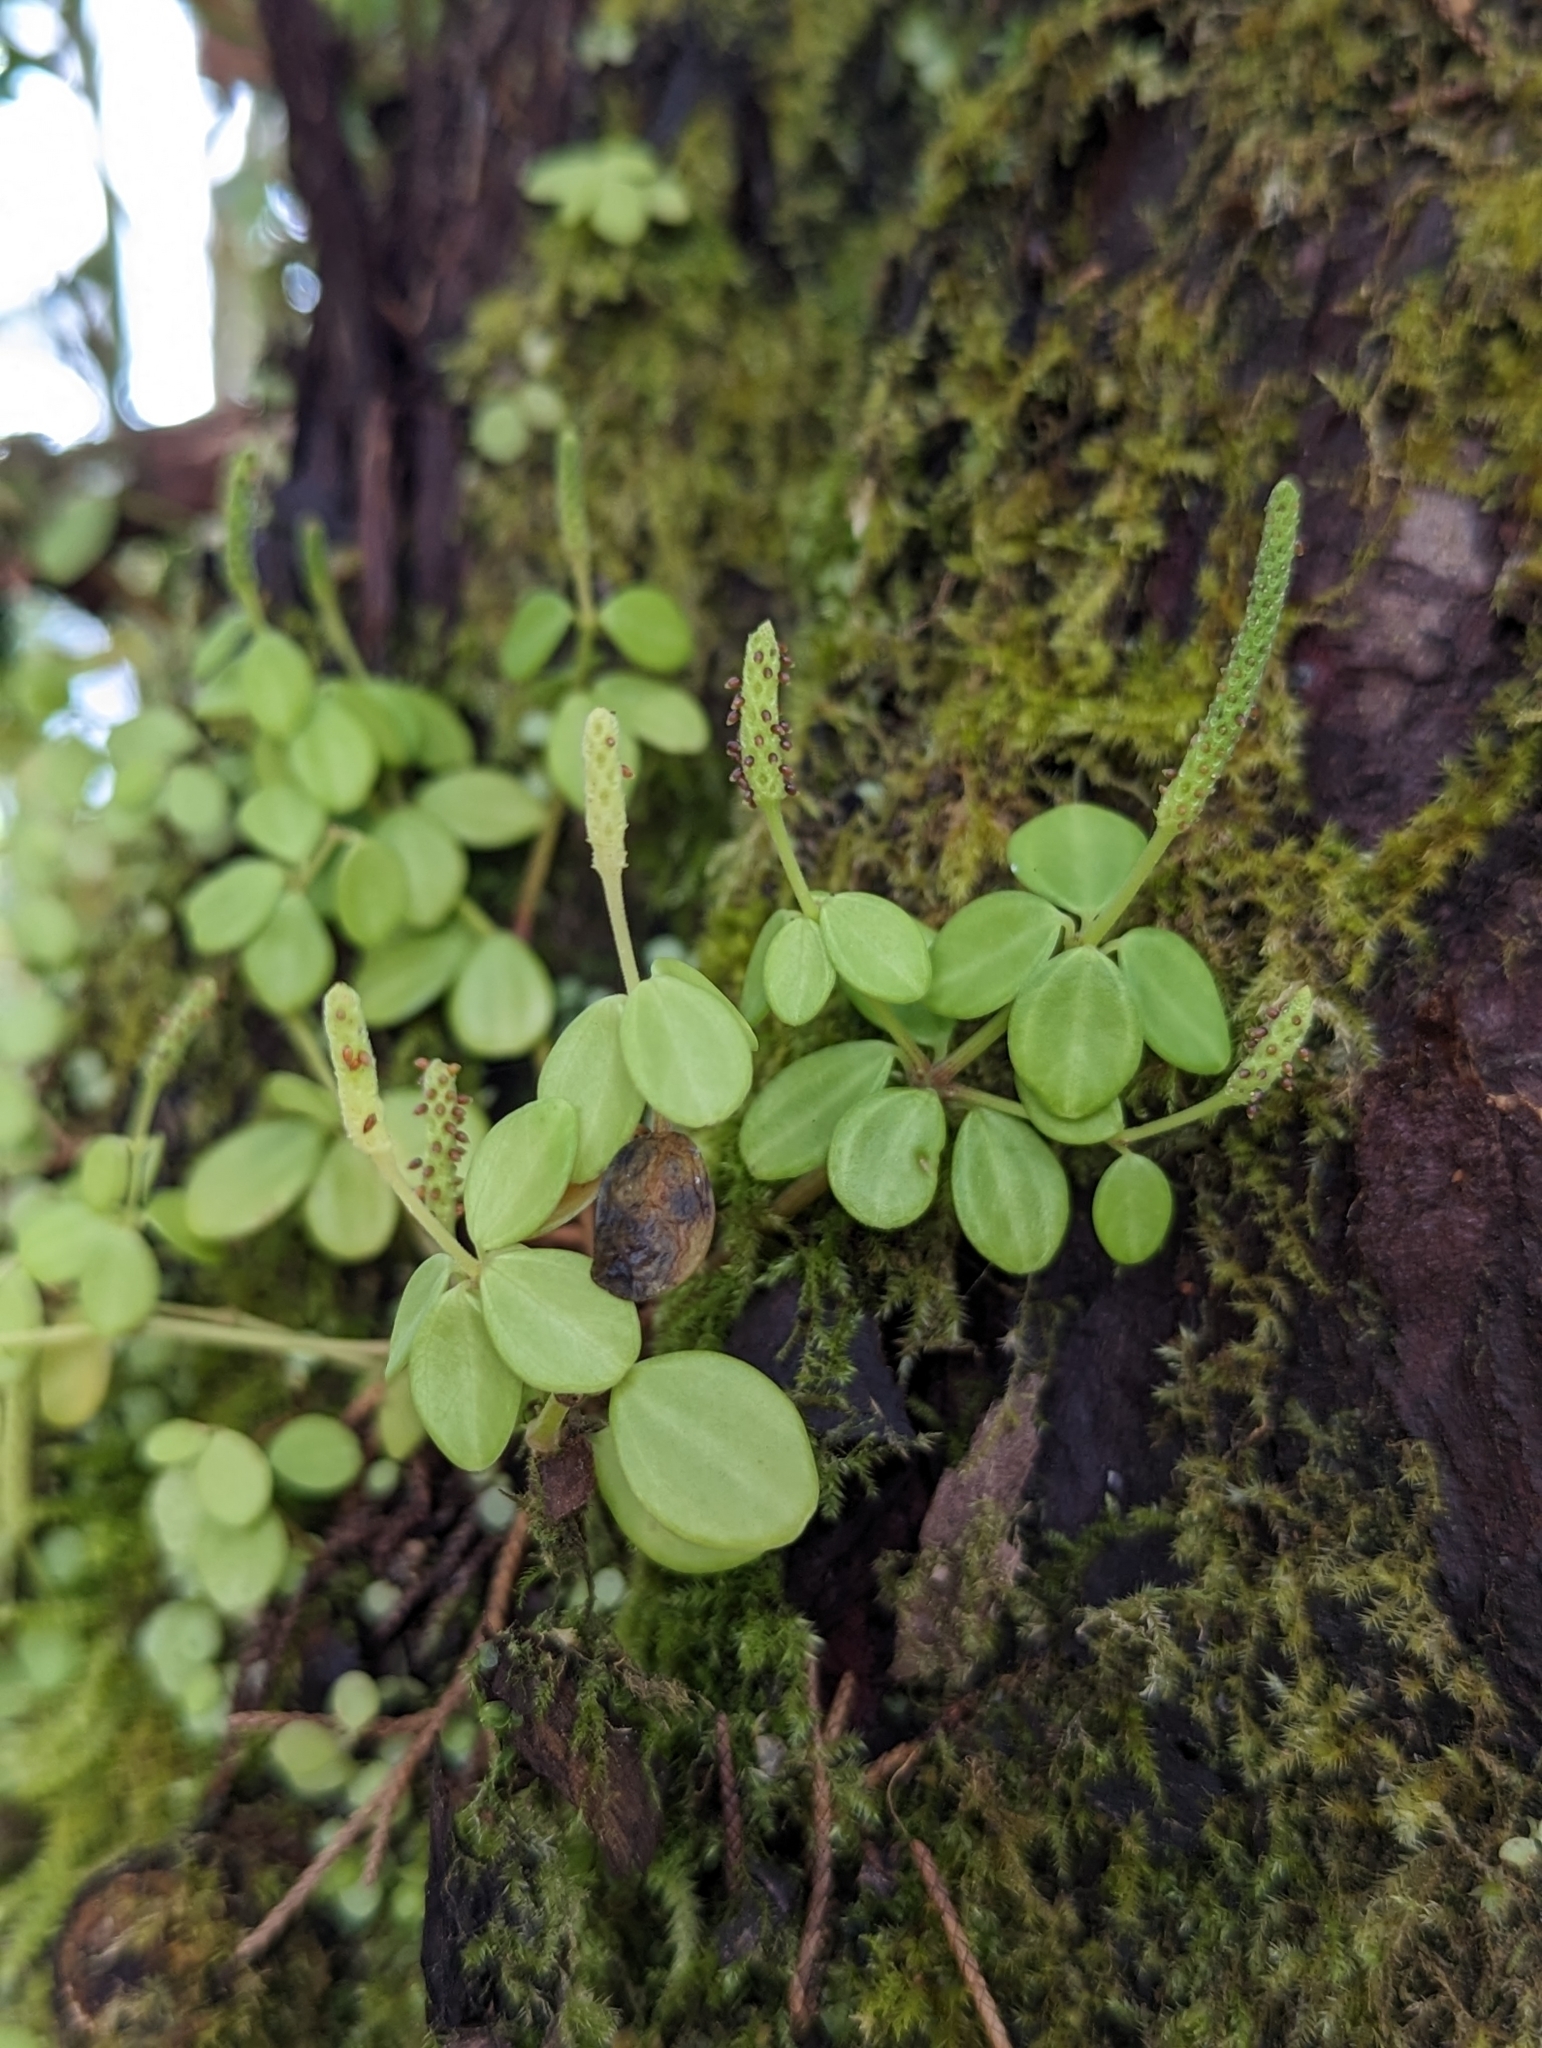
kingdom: Plantae
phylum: Tracheophyta
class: Magnoliopsida
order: Piperales
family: Piperaceae
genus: Peperomia
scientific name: Peperomia tetraphylla
